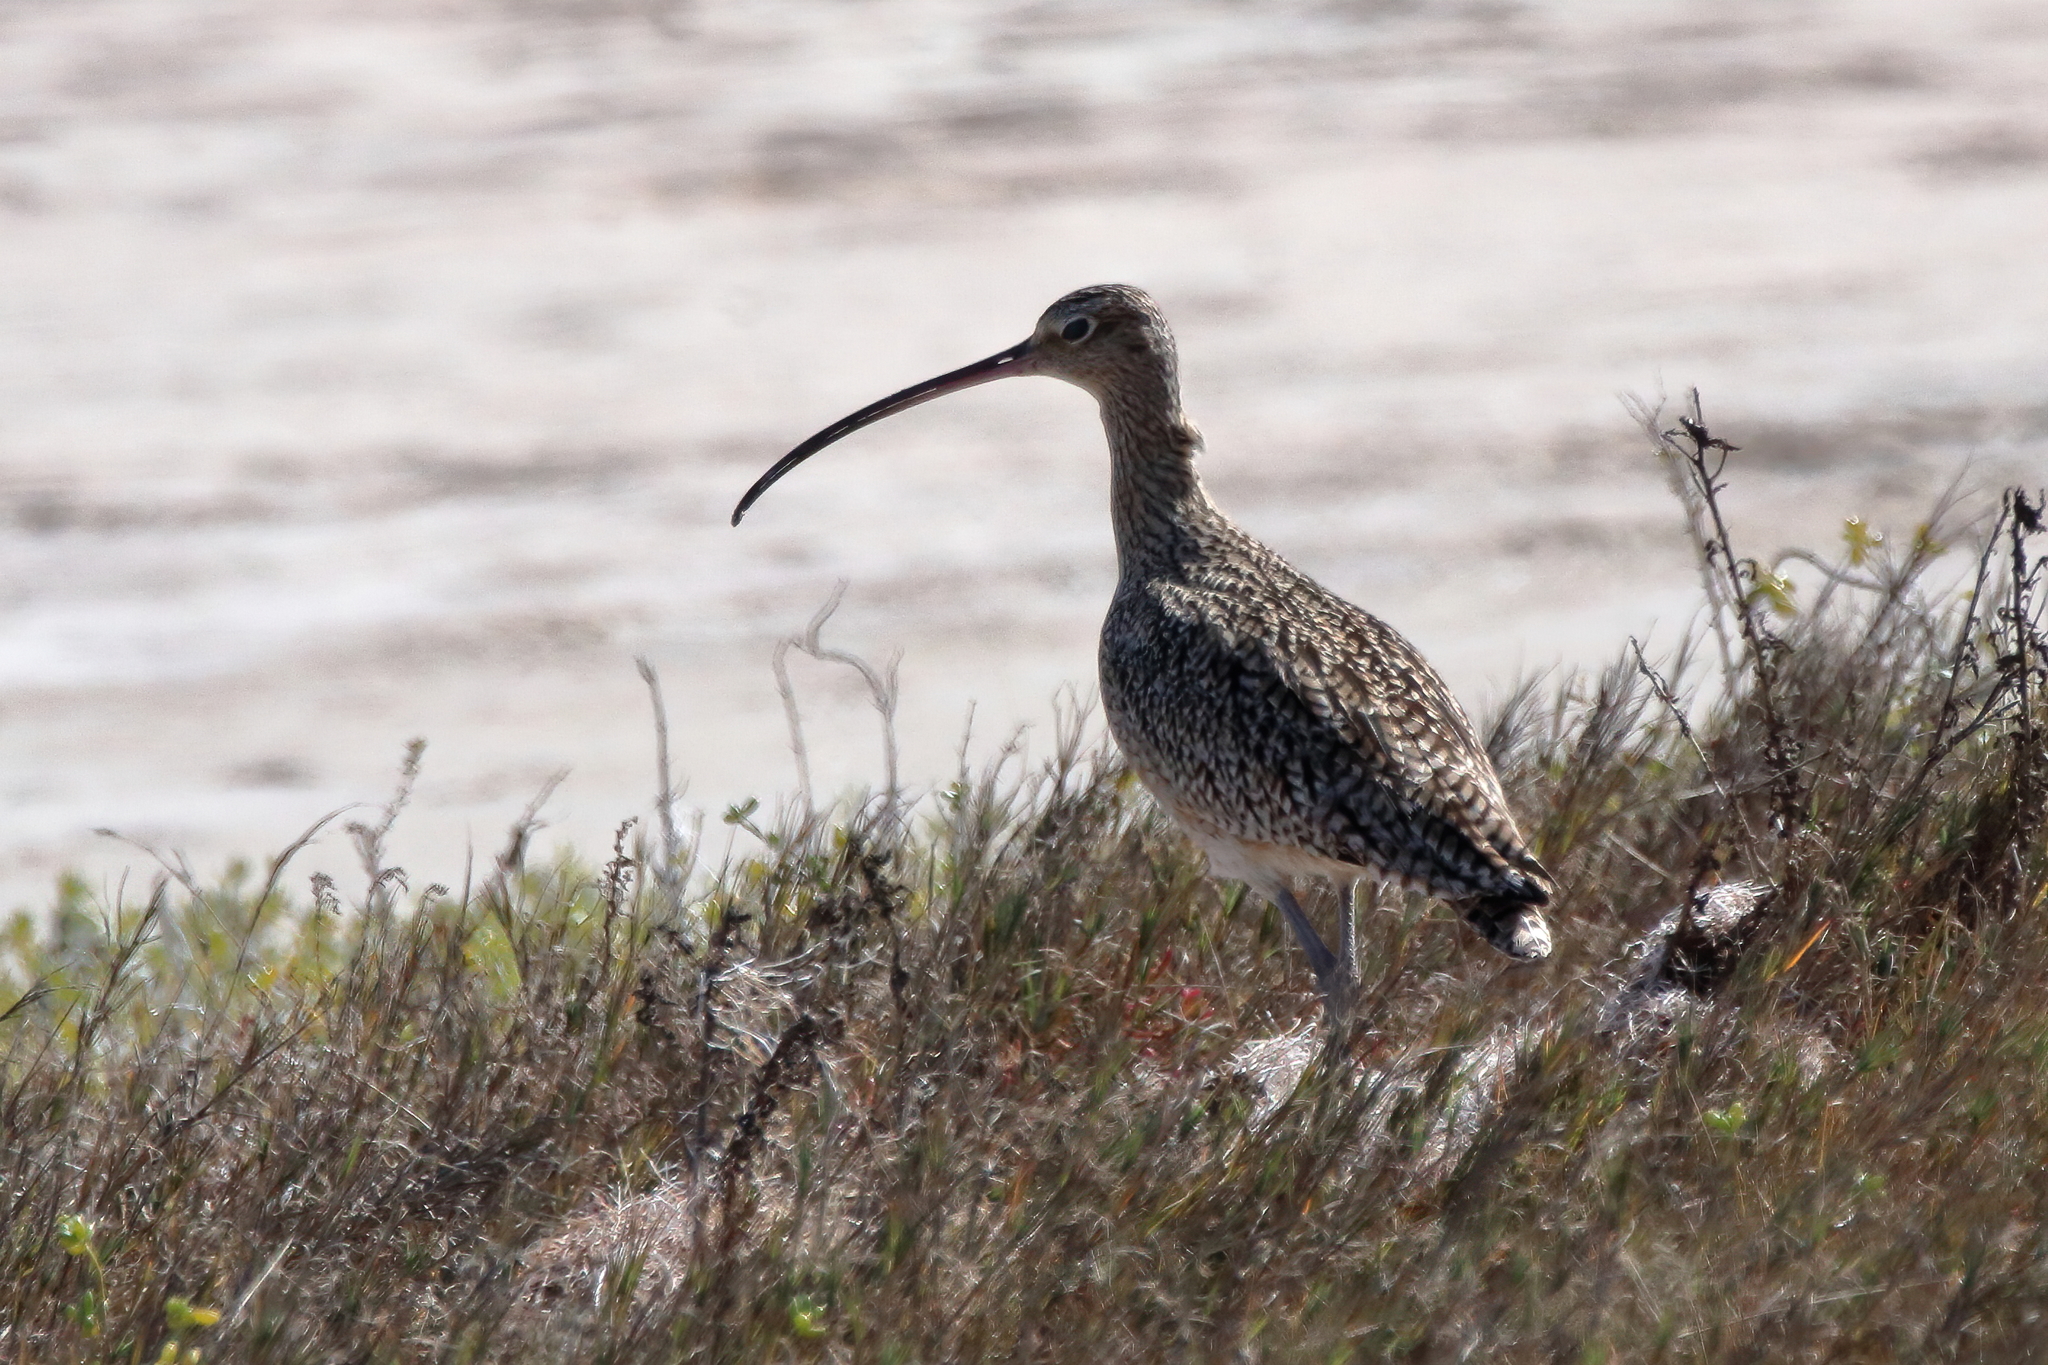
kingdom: Animalia
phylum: Chordata
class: Aves
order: Charadriiformes
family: Scolopacidae
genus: Numenius
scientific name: Numenius americanus
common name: Long-billed curlew
